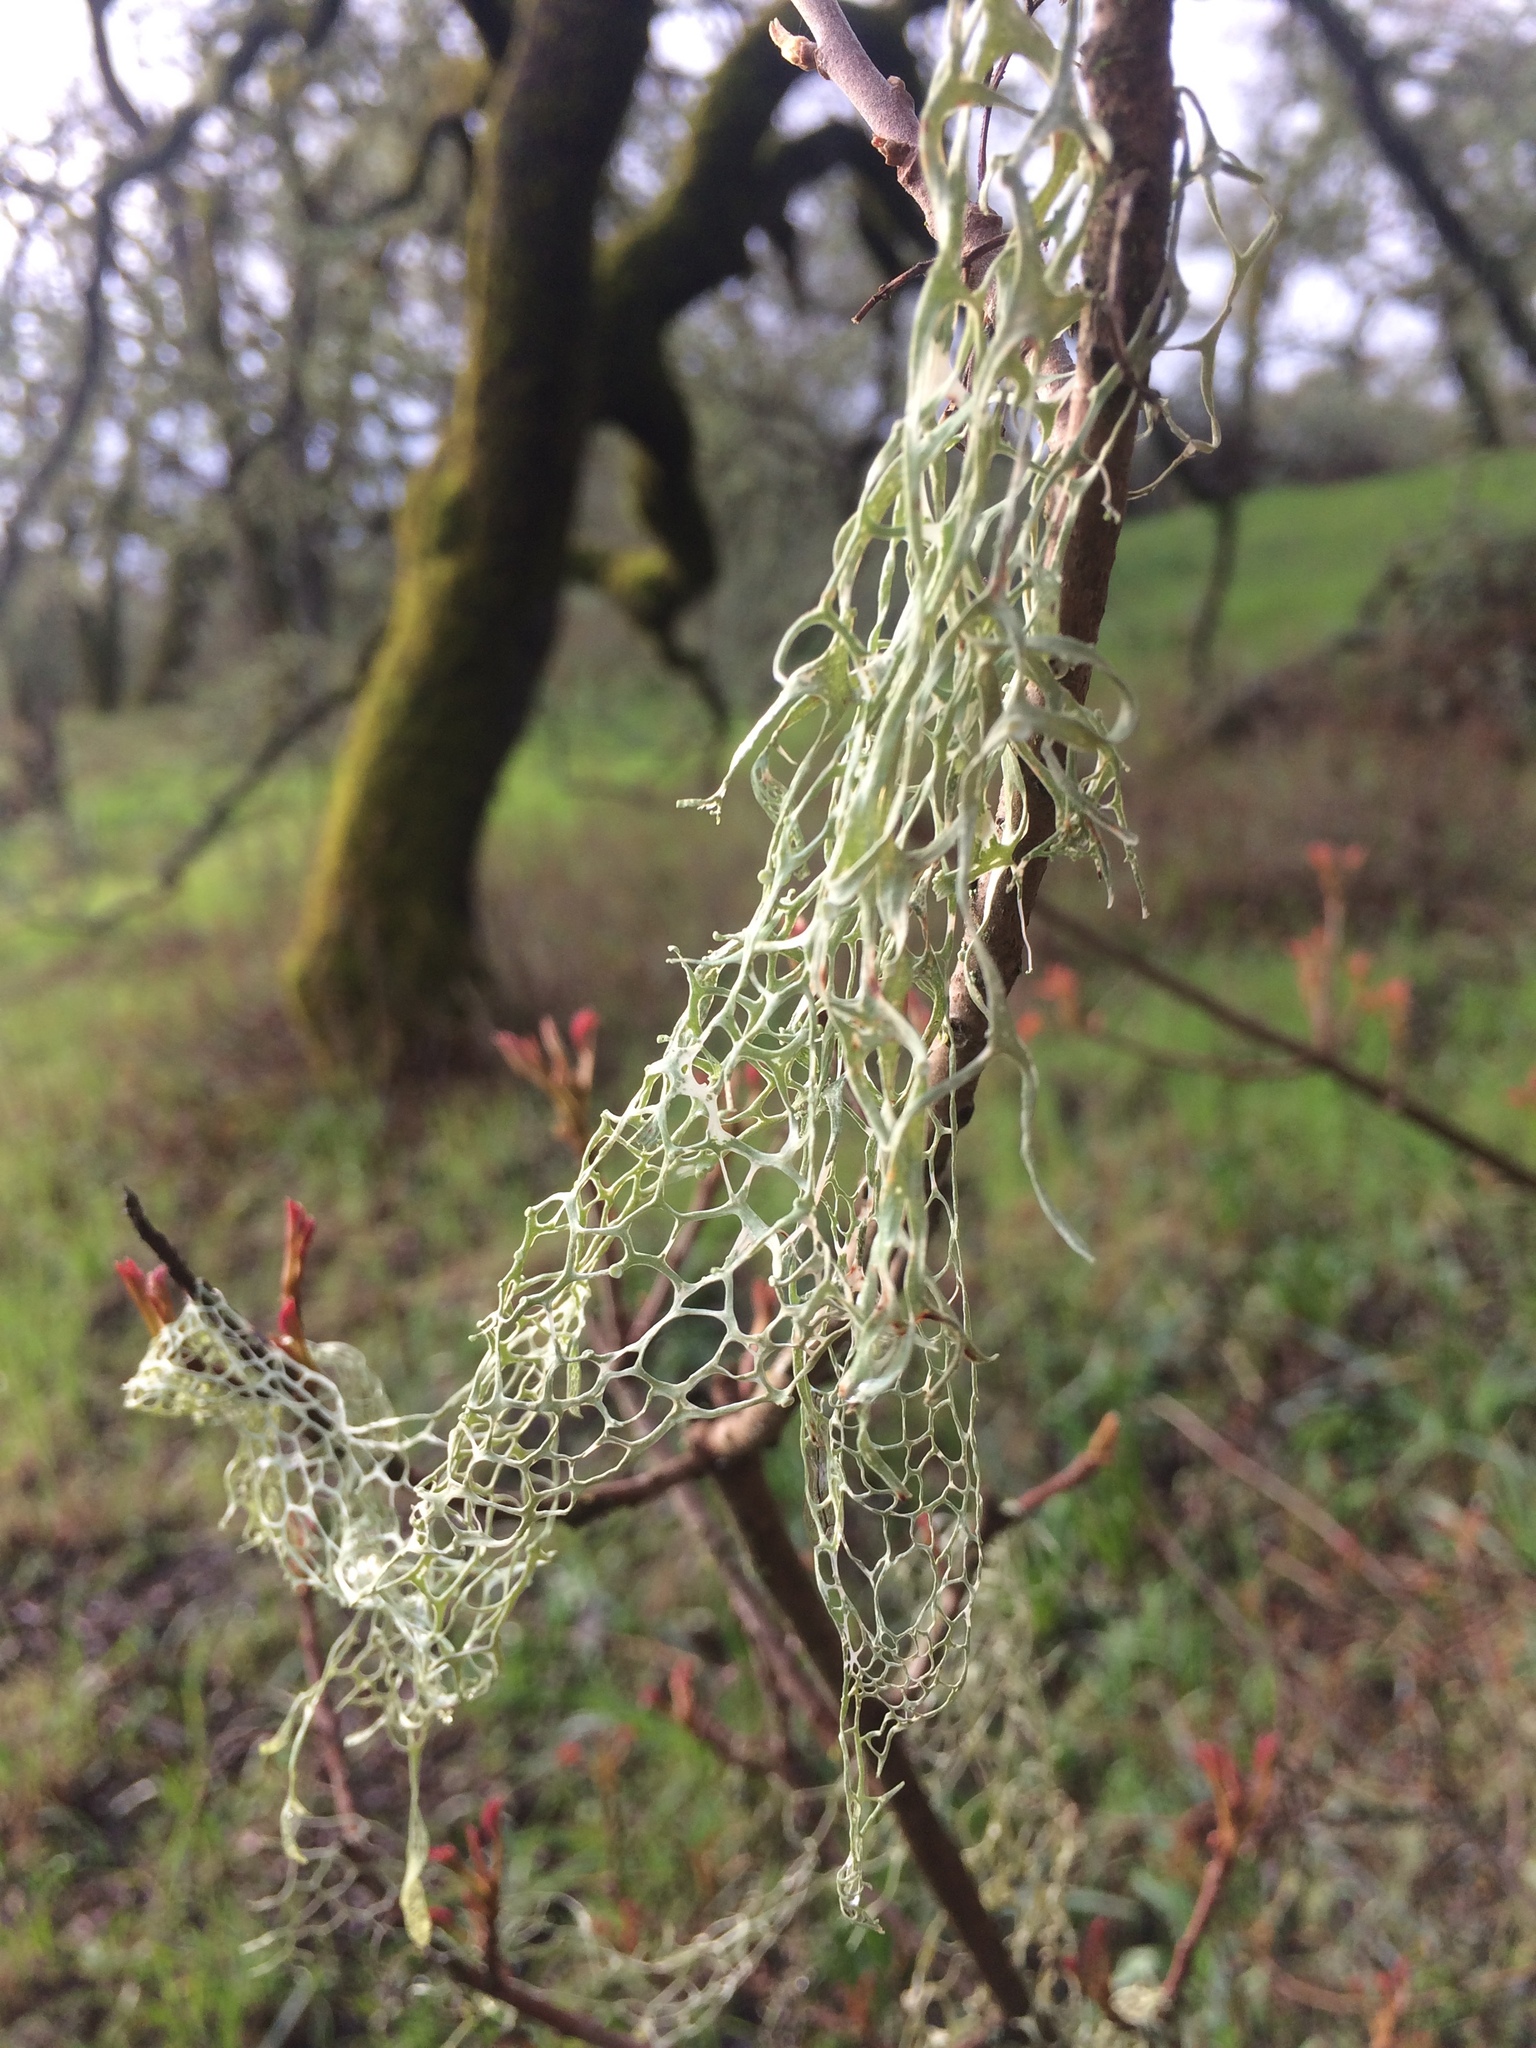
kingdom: Fungi
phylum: Ascomycota
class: Lecanoromycetes
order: Lecanorales
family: Ramalinaceae
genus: Ramalina
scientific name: Ramalina menziesii
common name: Lace lichen
